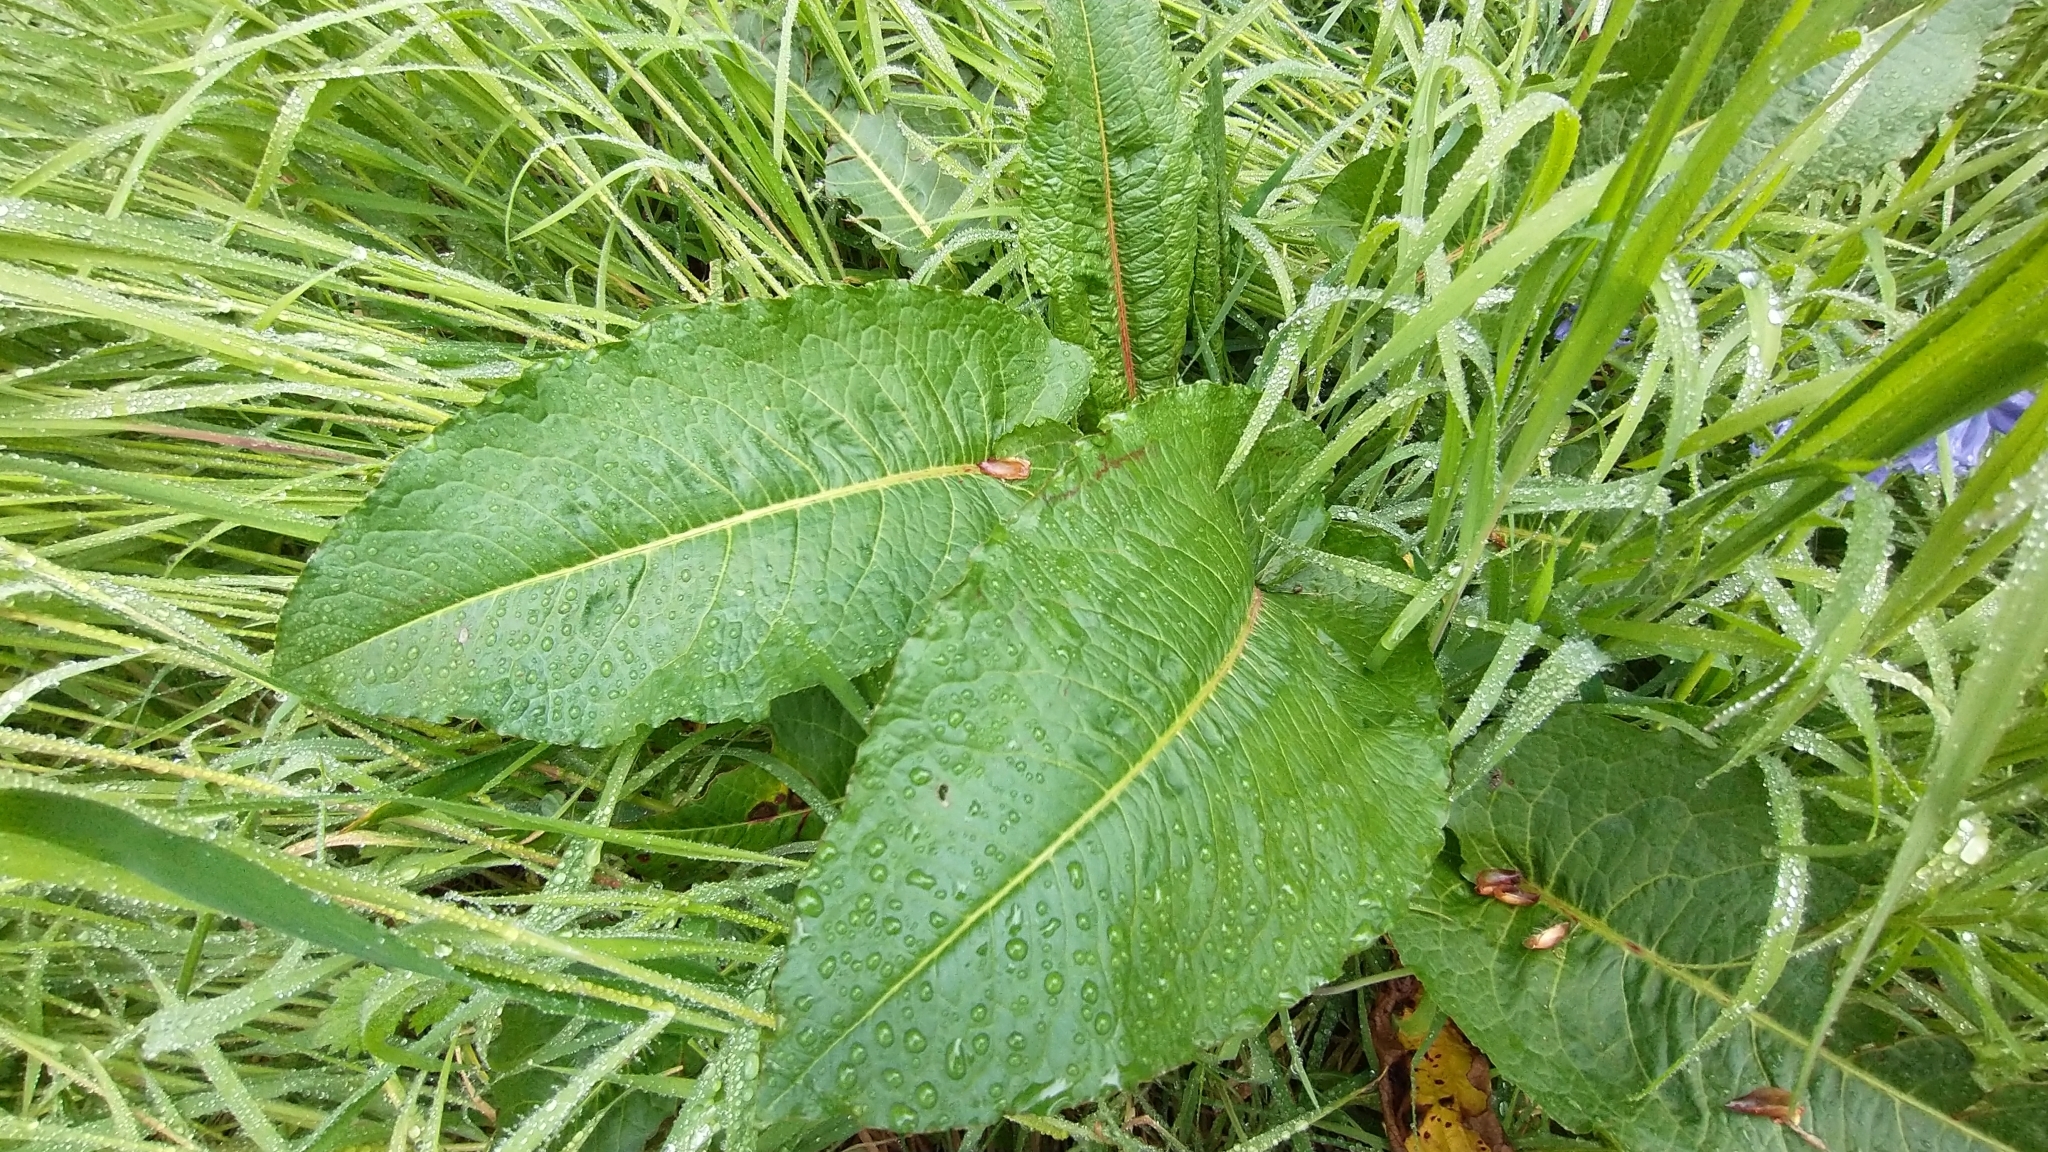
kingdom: Plantae
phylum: Tracheophyta
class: Magnoliopsida
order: Caryophyllales
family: Polygonaceae
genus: Rumex
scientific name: Rumex obtusifolius
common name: Bitter dock
